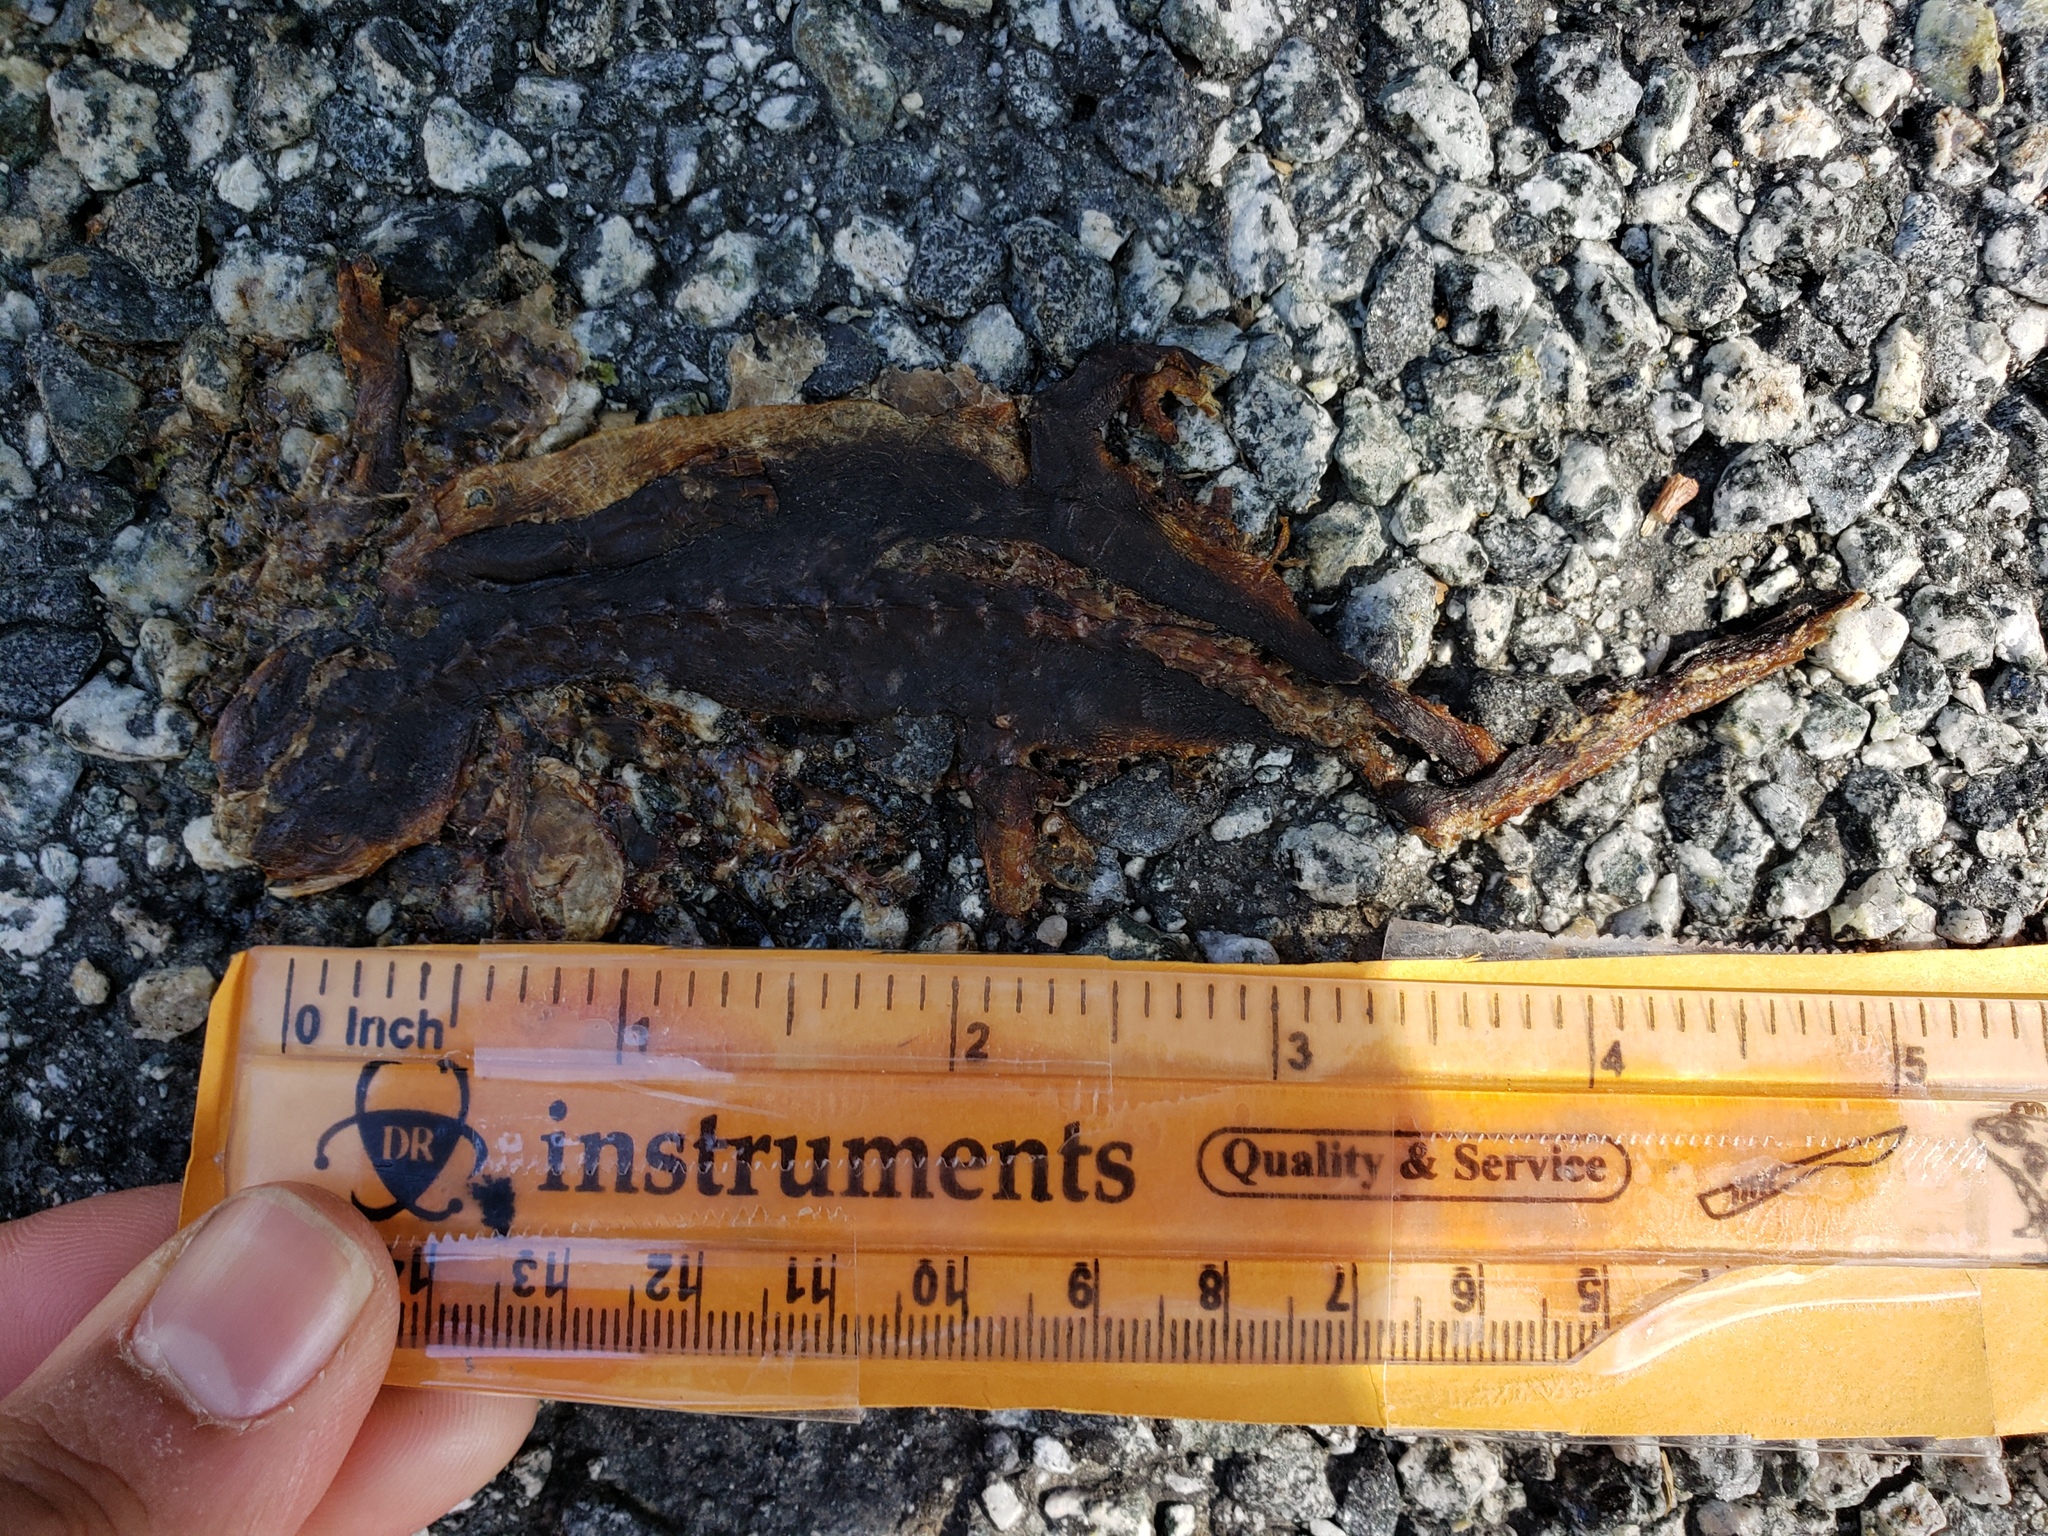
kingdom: Animalia
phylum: Chordata
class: Amphibia
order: Caudata
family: Salamandridae
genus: Taricha
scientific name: Taricha
